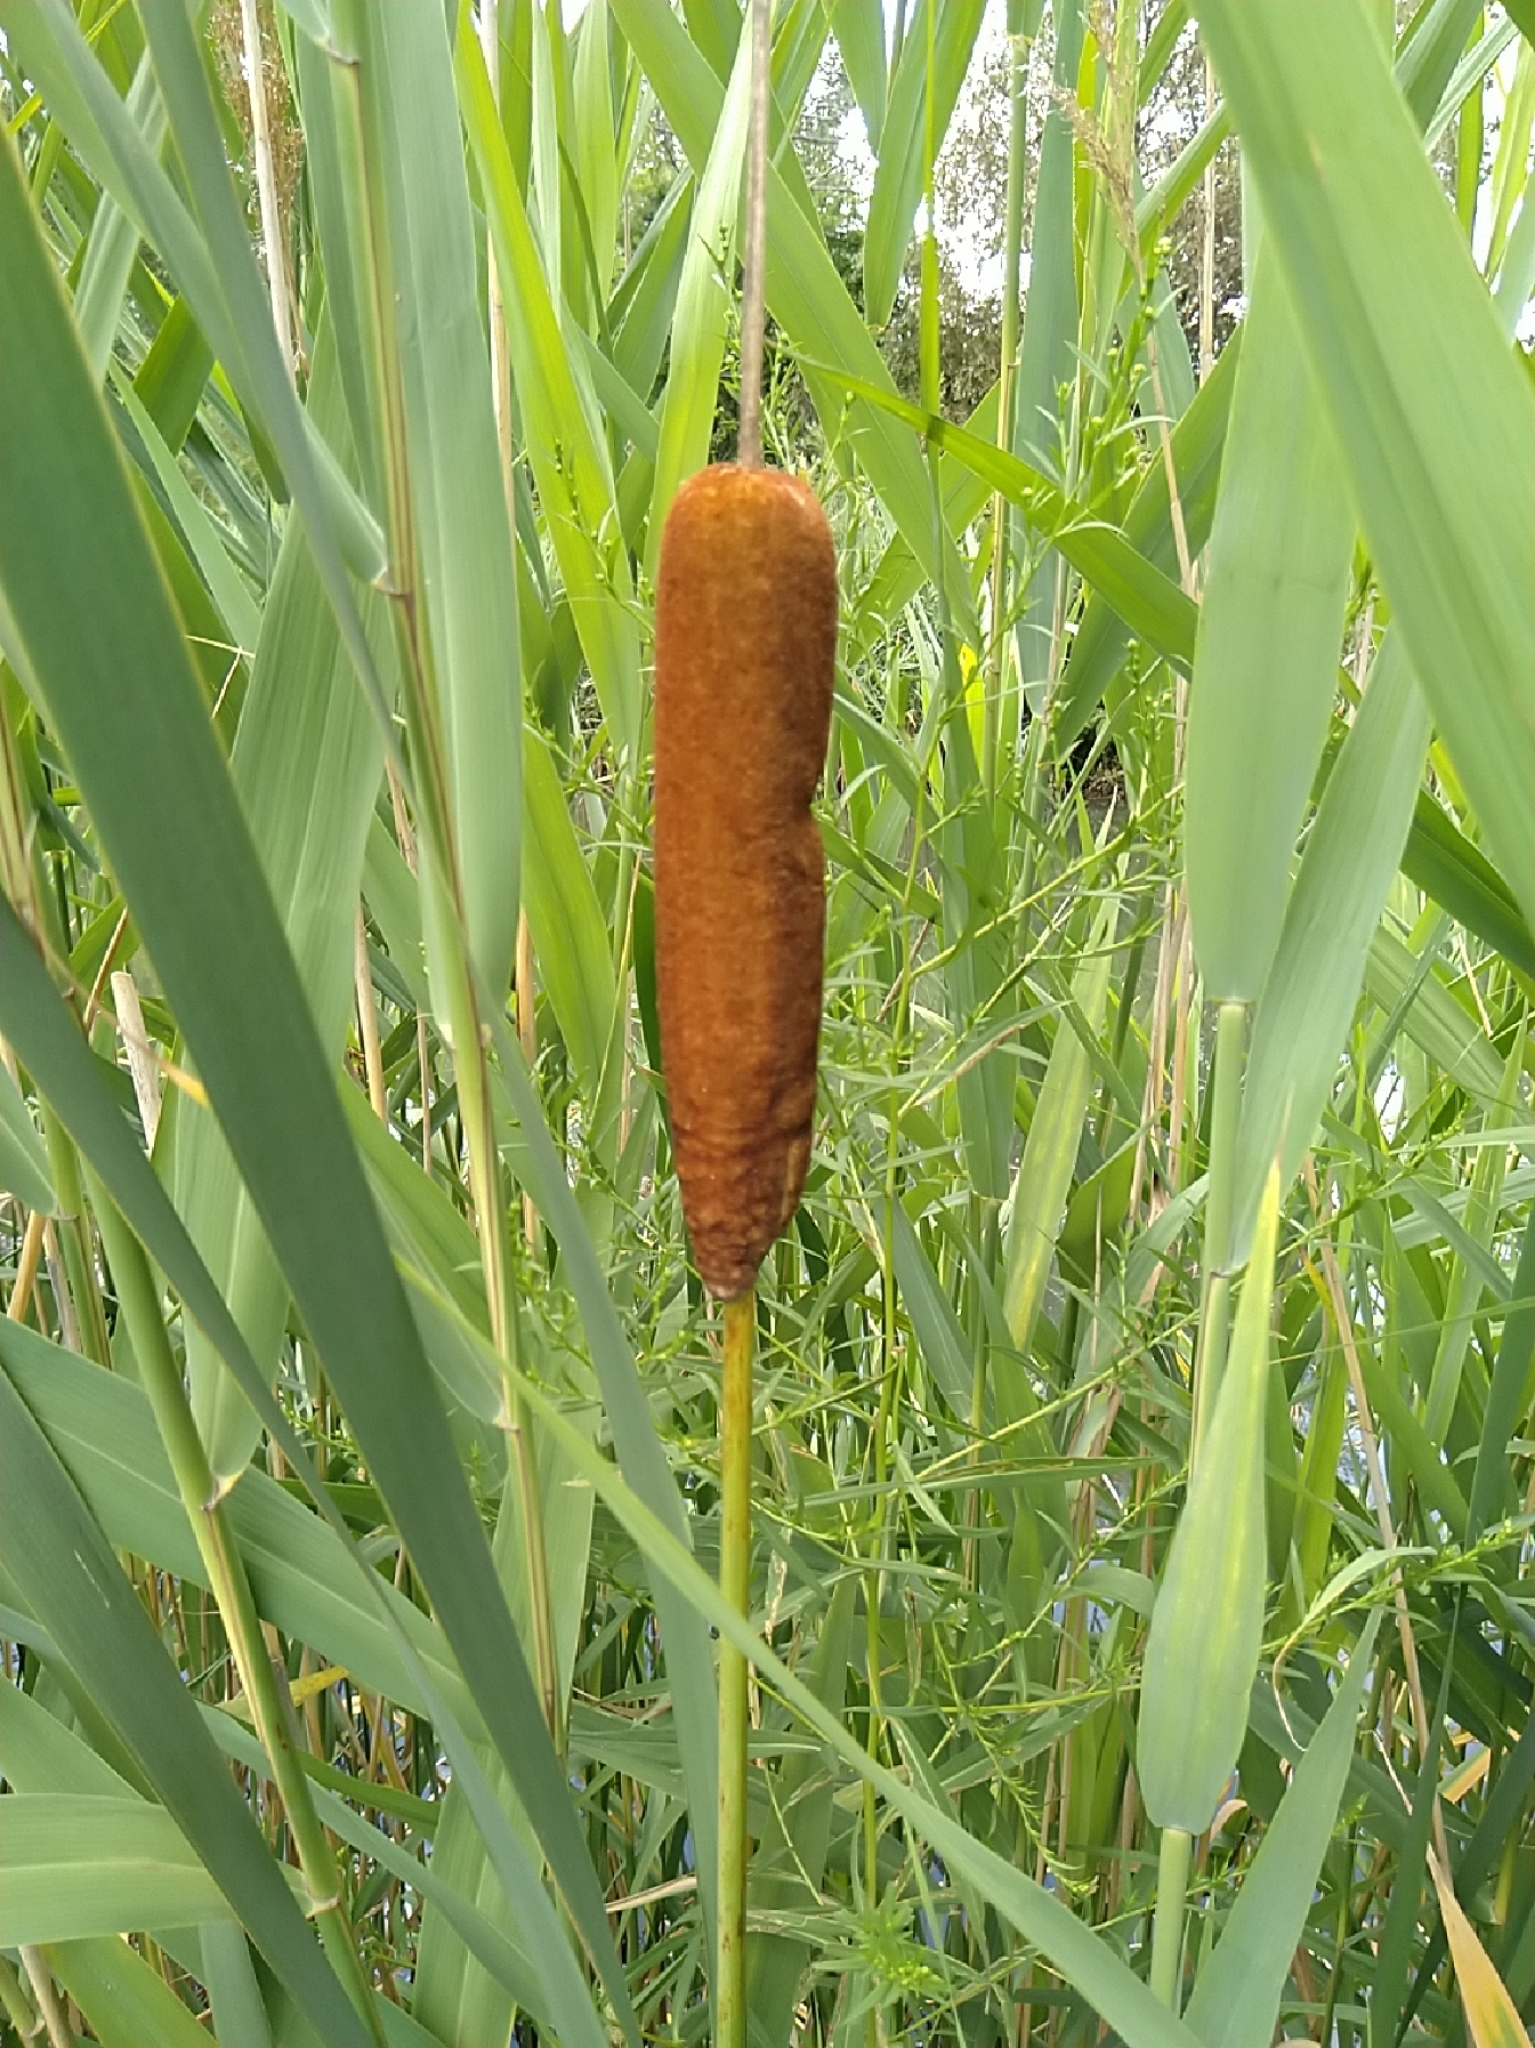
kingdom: Plantae
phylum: Tracheophyta
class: Liliopsida
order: Poales
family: Typhaceae
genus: Typha
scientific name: Typha latifolia
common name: Broadleaf cattail
